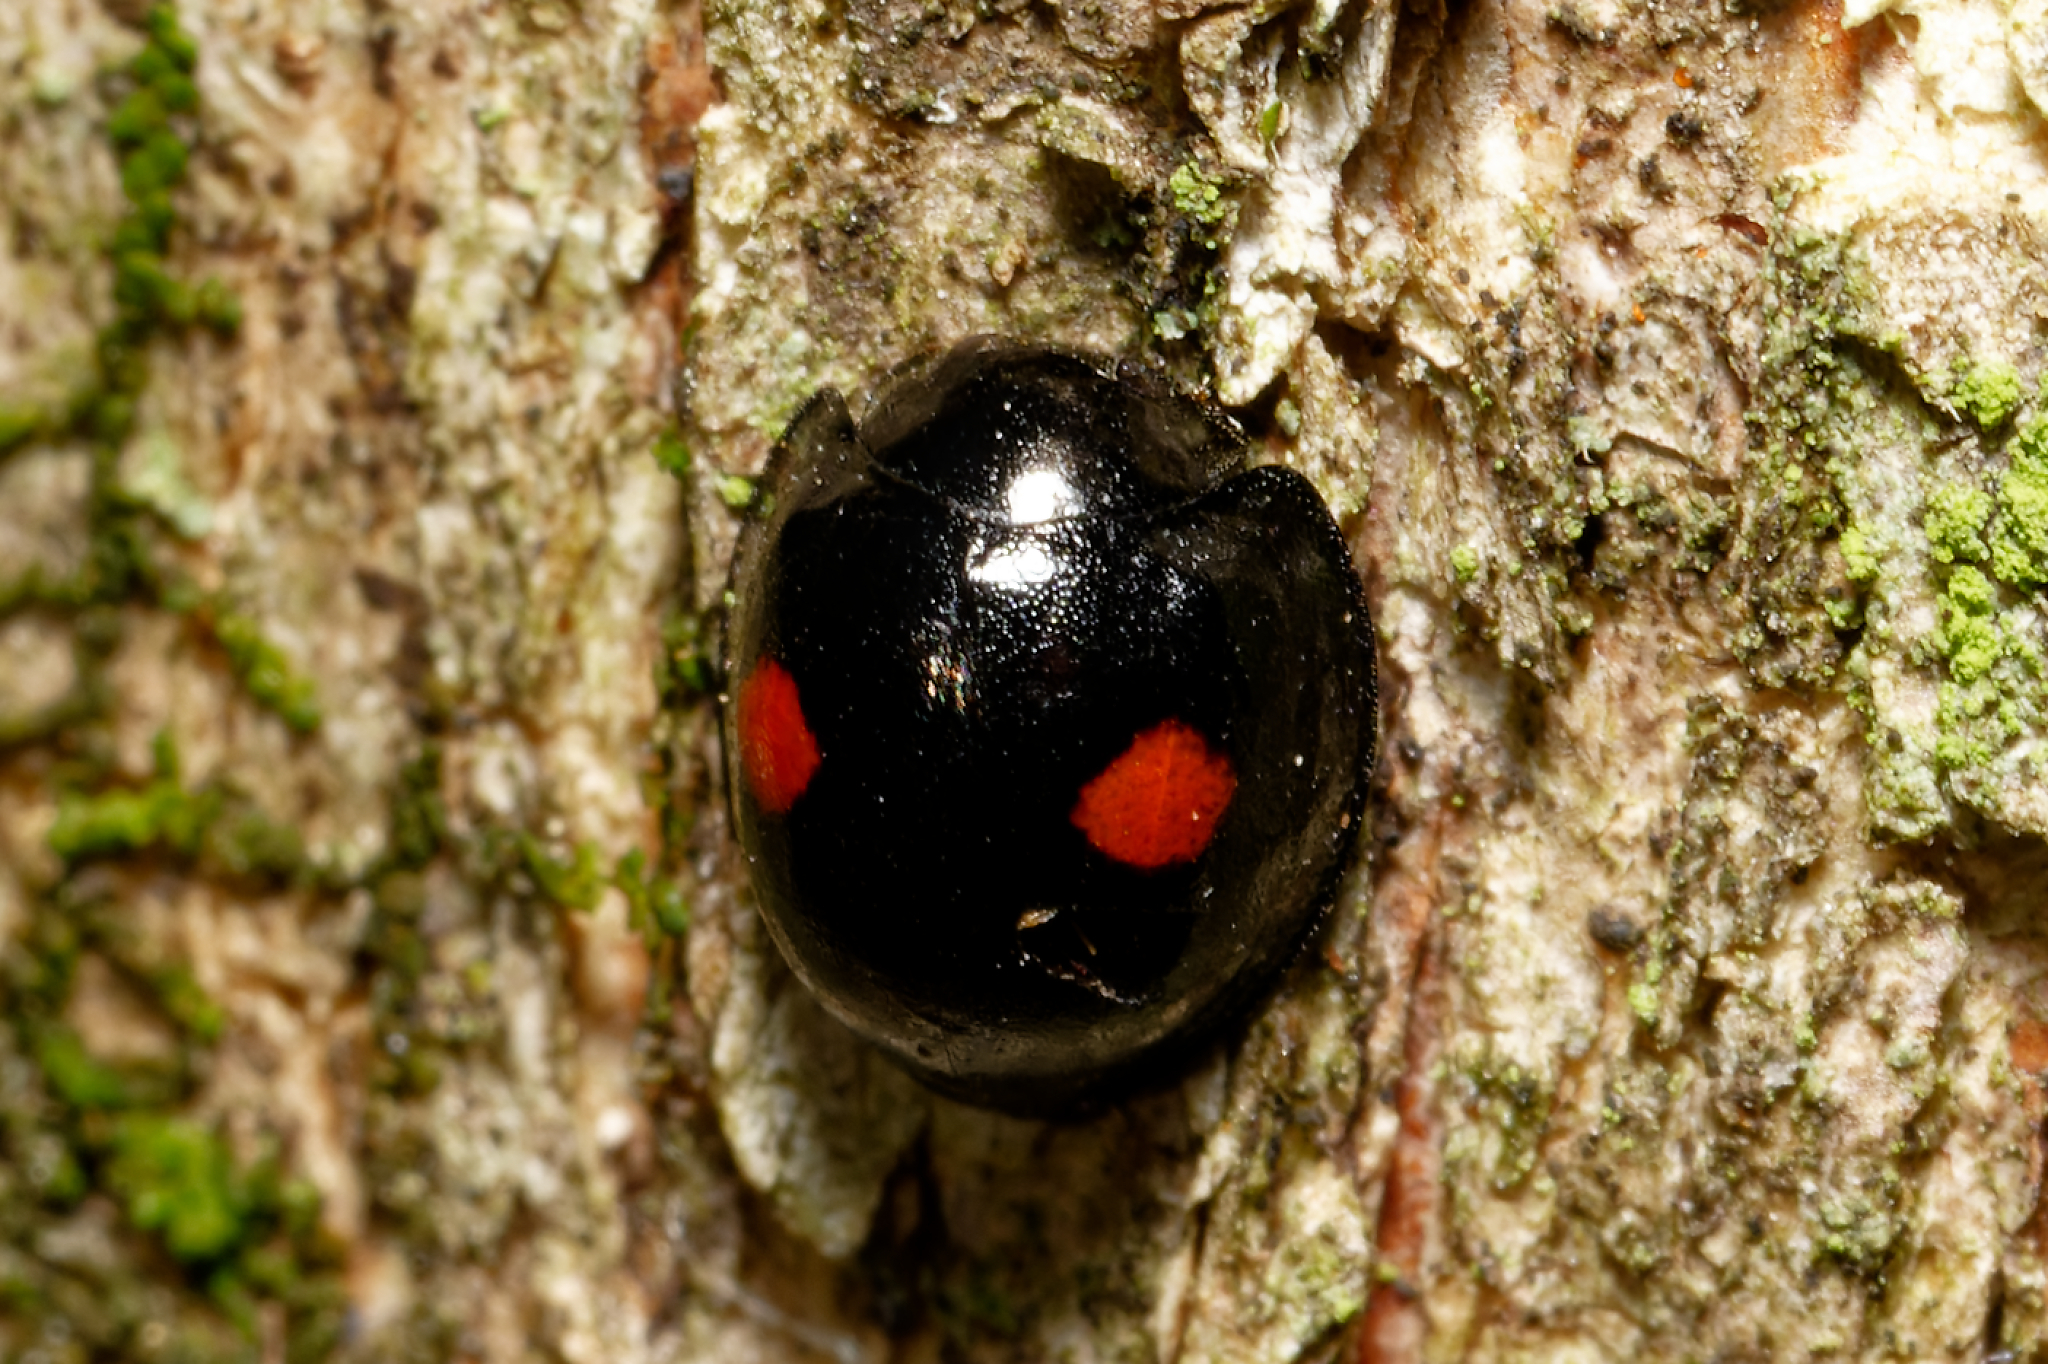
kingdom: Animalia
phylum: Arthropoda
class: Insecta
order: Coleoptera
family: Coccinellidae
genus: Chilocorus
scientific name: Chilocorus stigma
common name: Twicestabbed lady beetle
